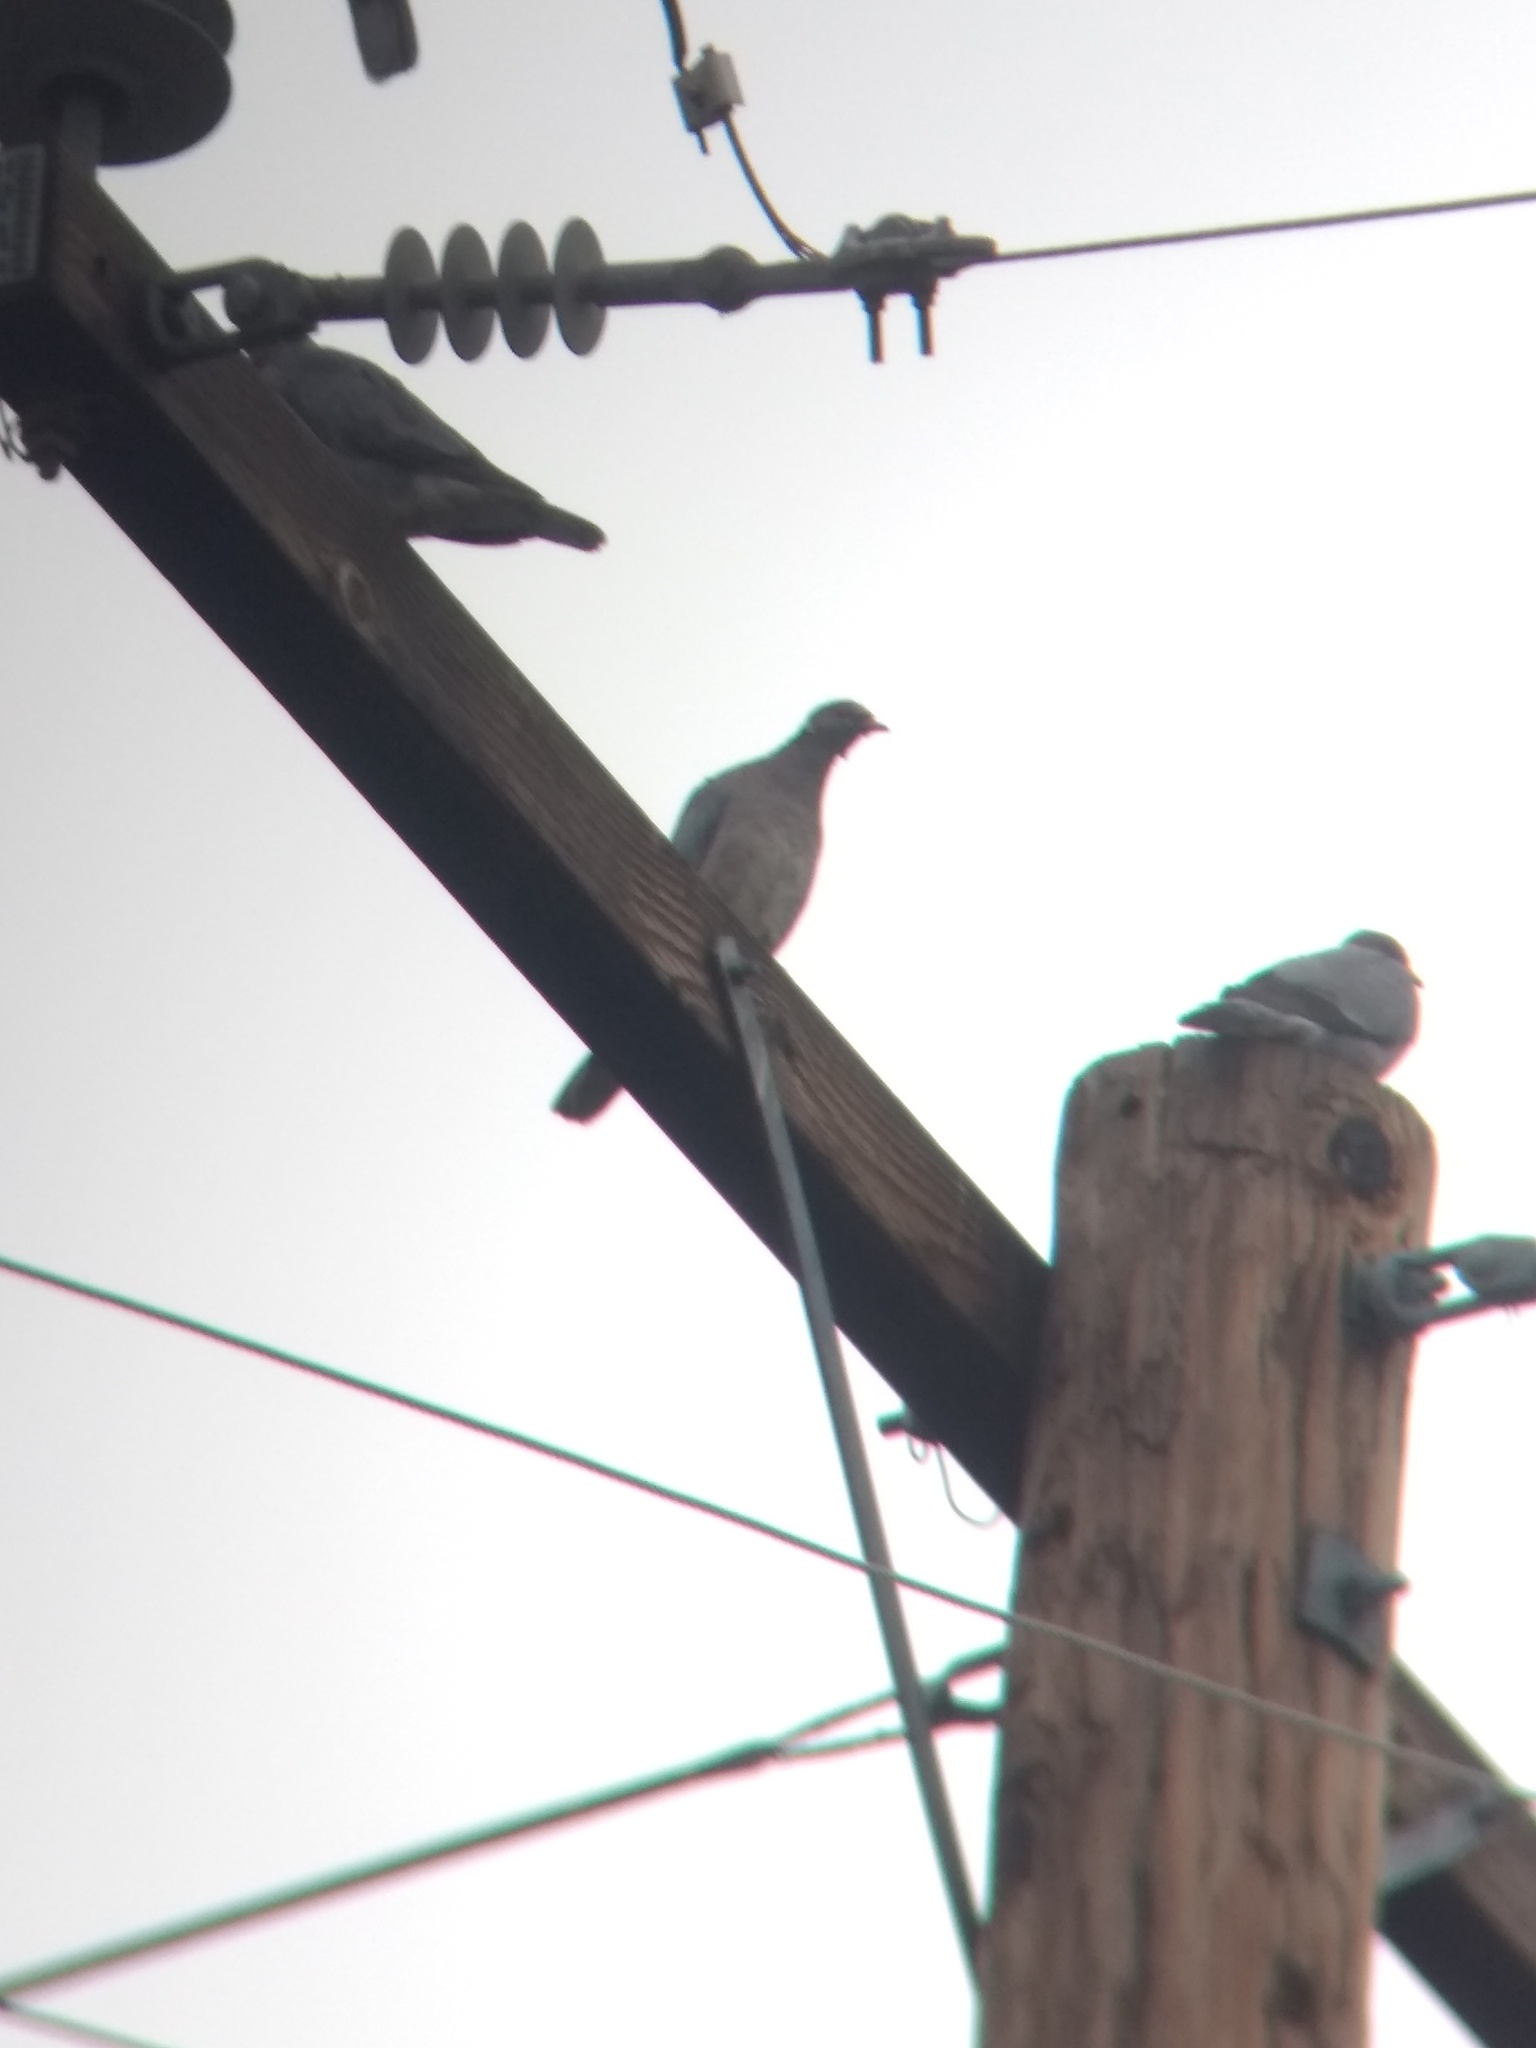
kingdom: Animalia
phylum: Chordata
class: Aves
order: Columbiformes
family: Columbidae
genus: Patagioenas
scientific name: Patagioenas fasciata
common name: Band-tailed pigeon
